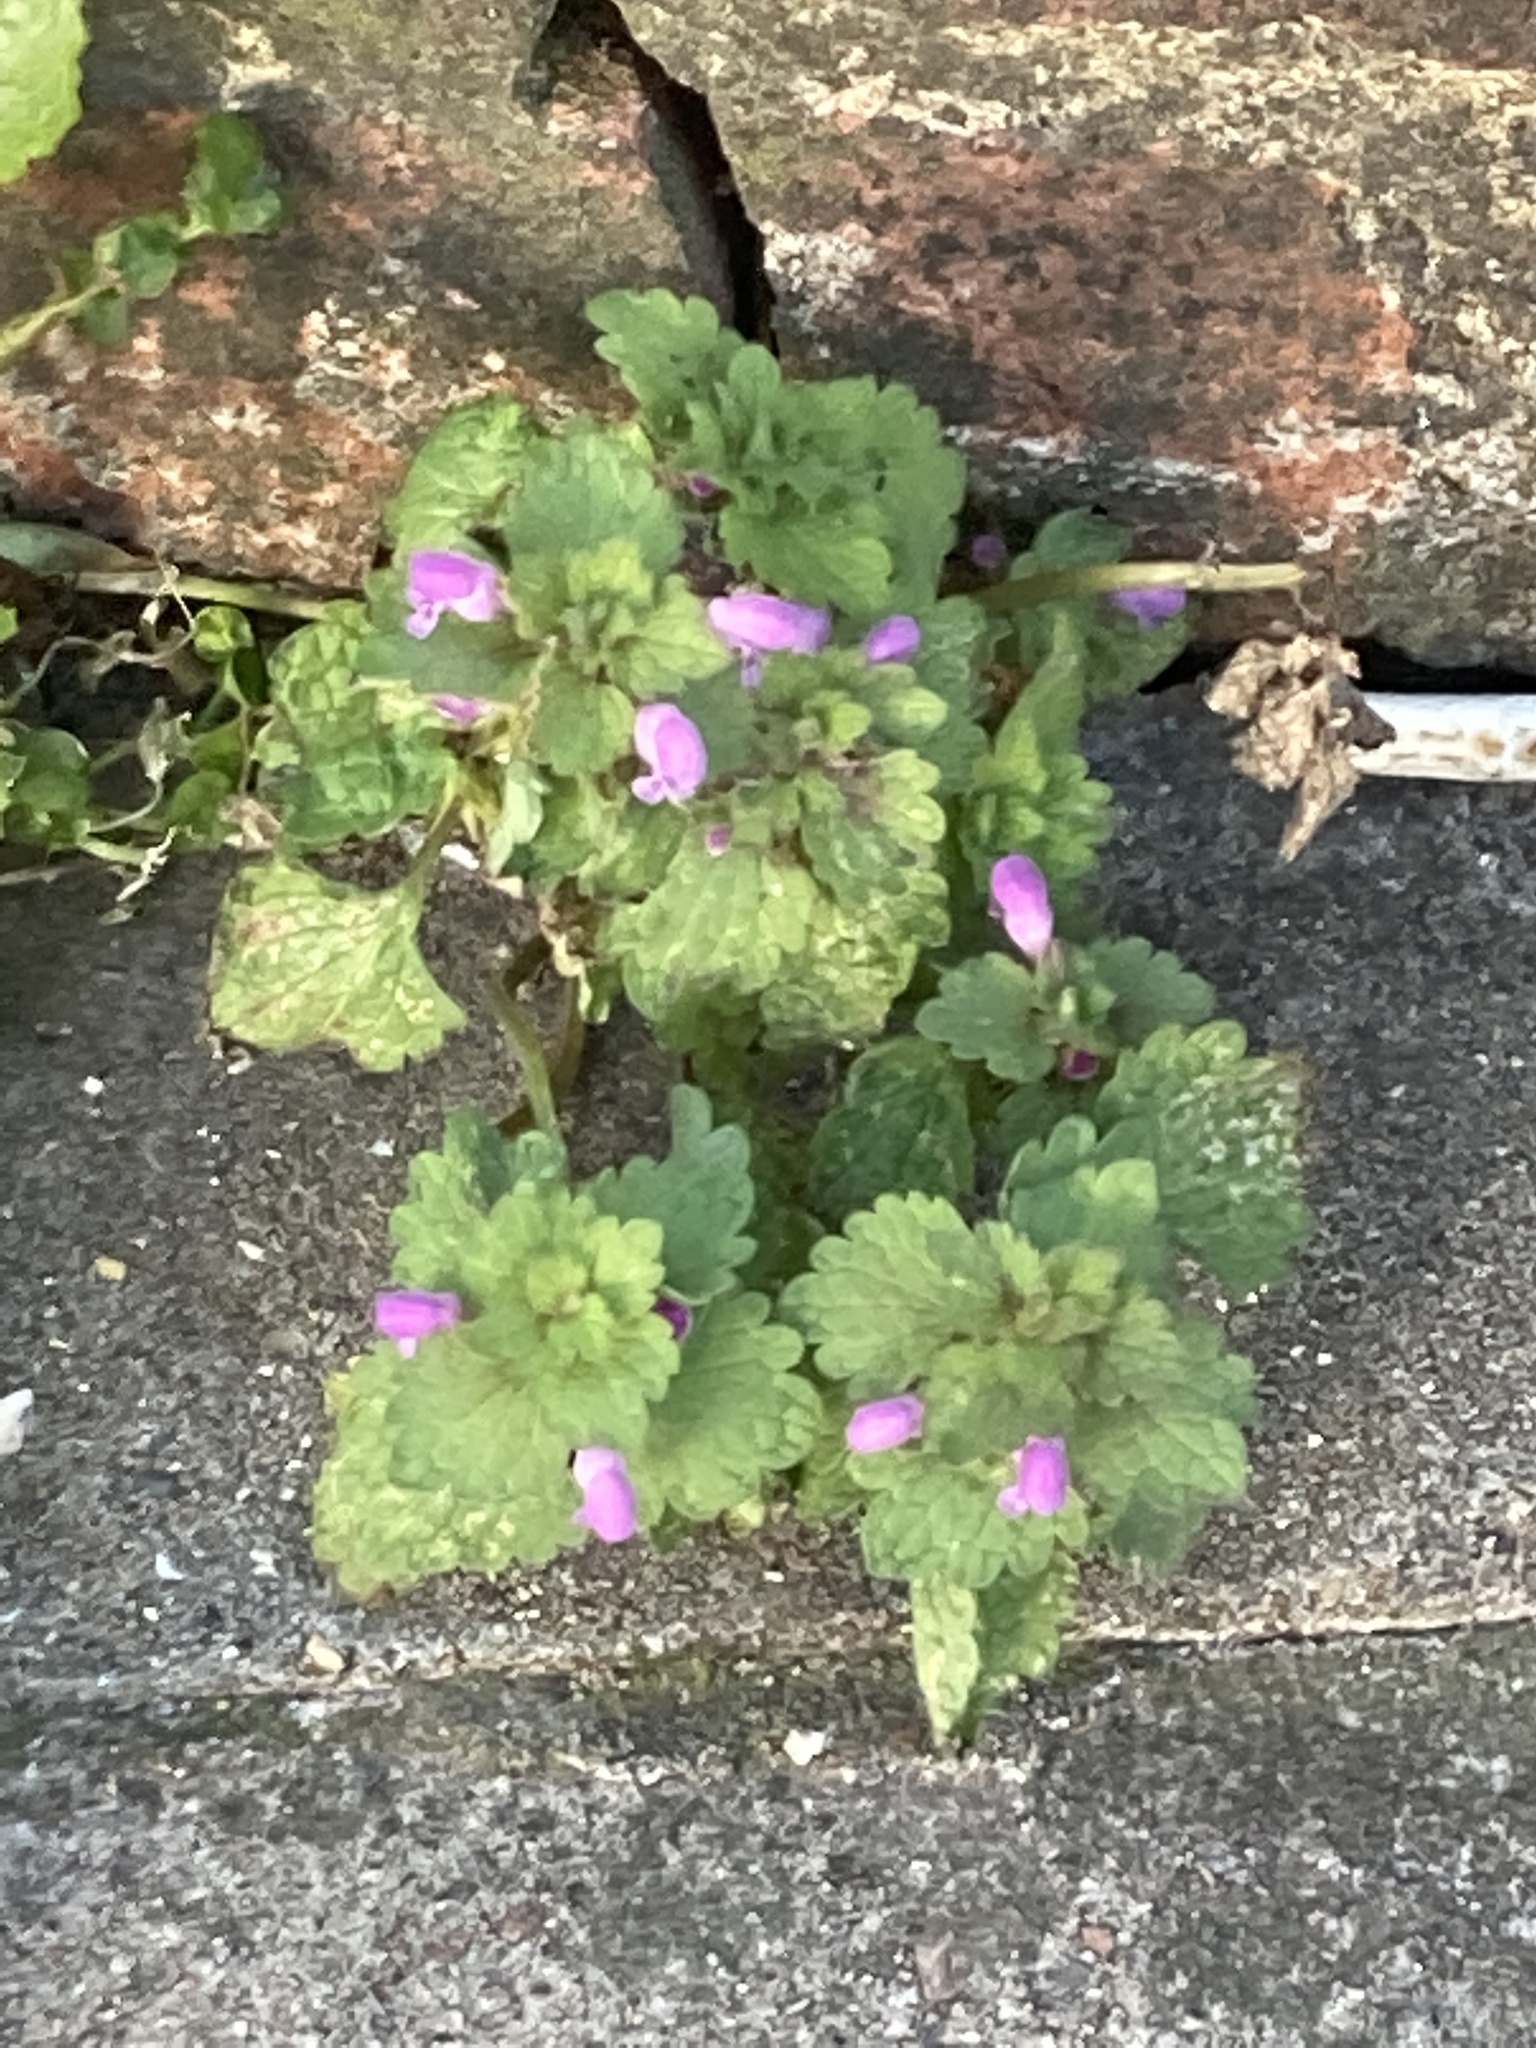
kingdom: Plantae
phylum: Tracheophyta
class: Magnoliopsida
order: Lamiales
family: Lamiaceae
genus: Lamium
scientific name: Lamium purpureum
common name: Red dead-nettle
